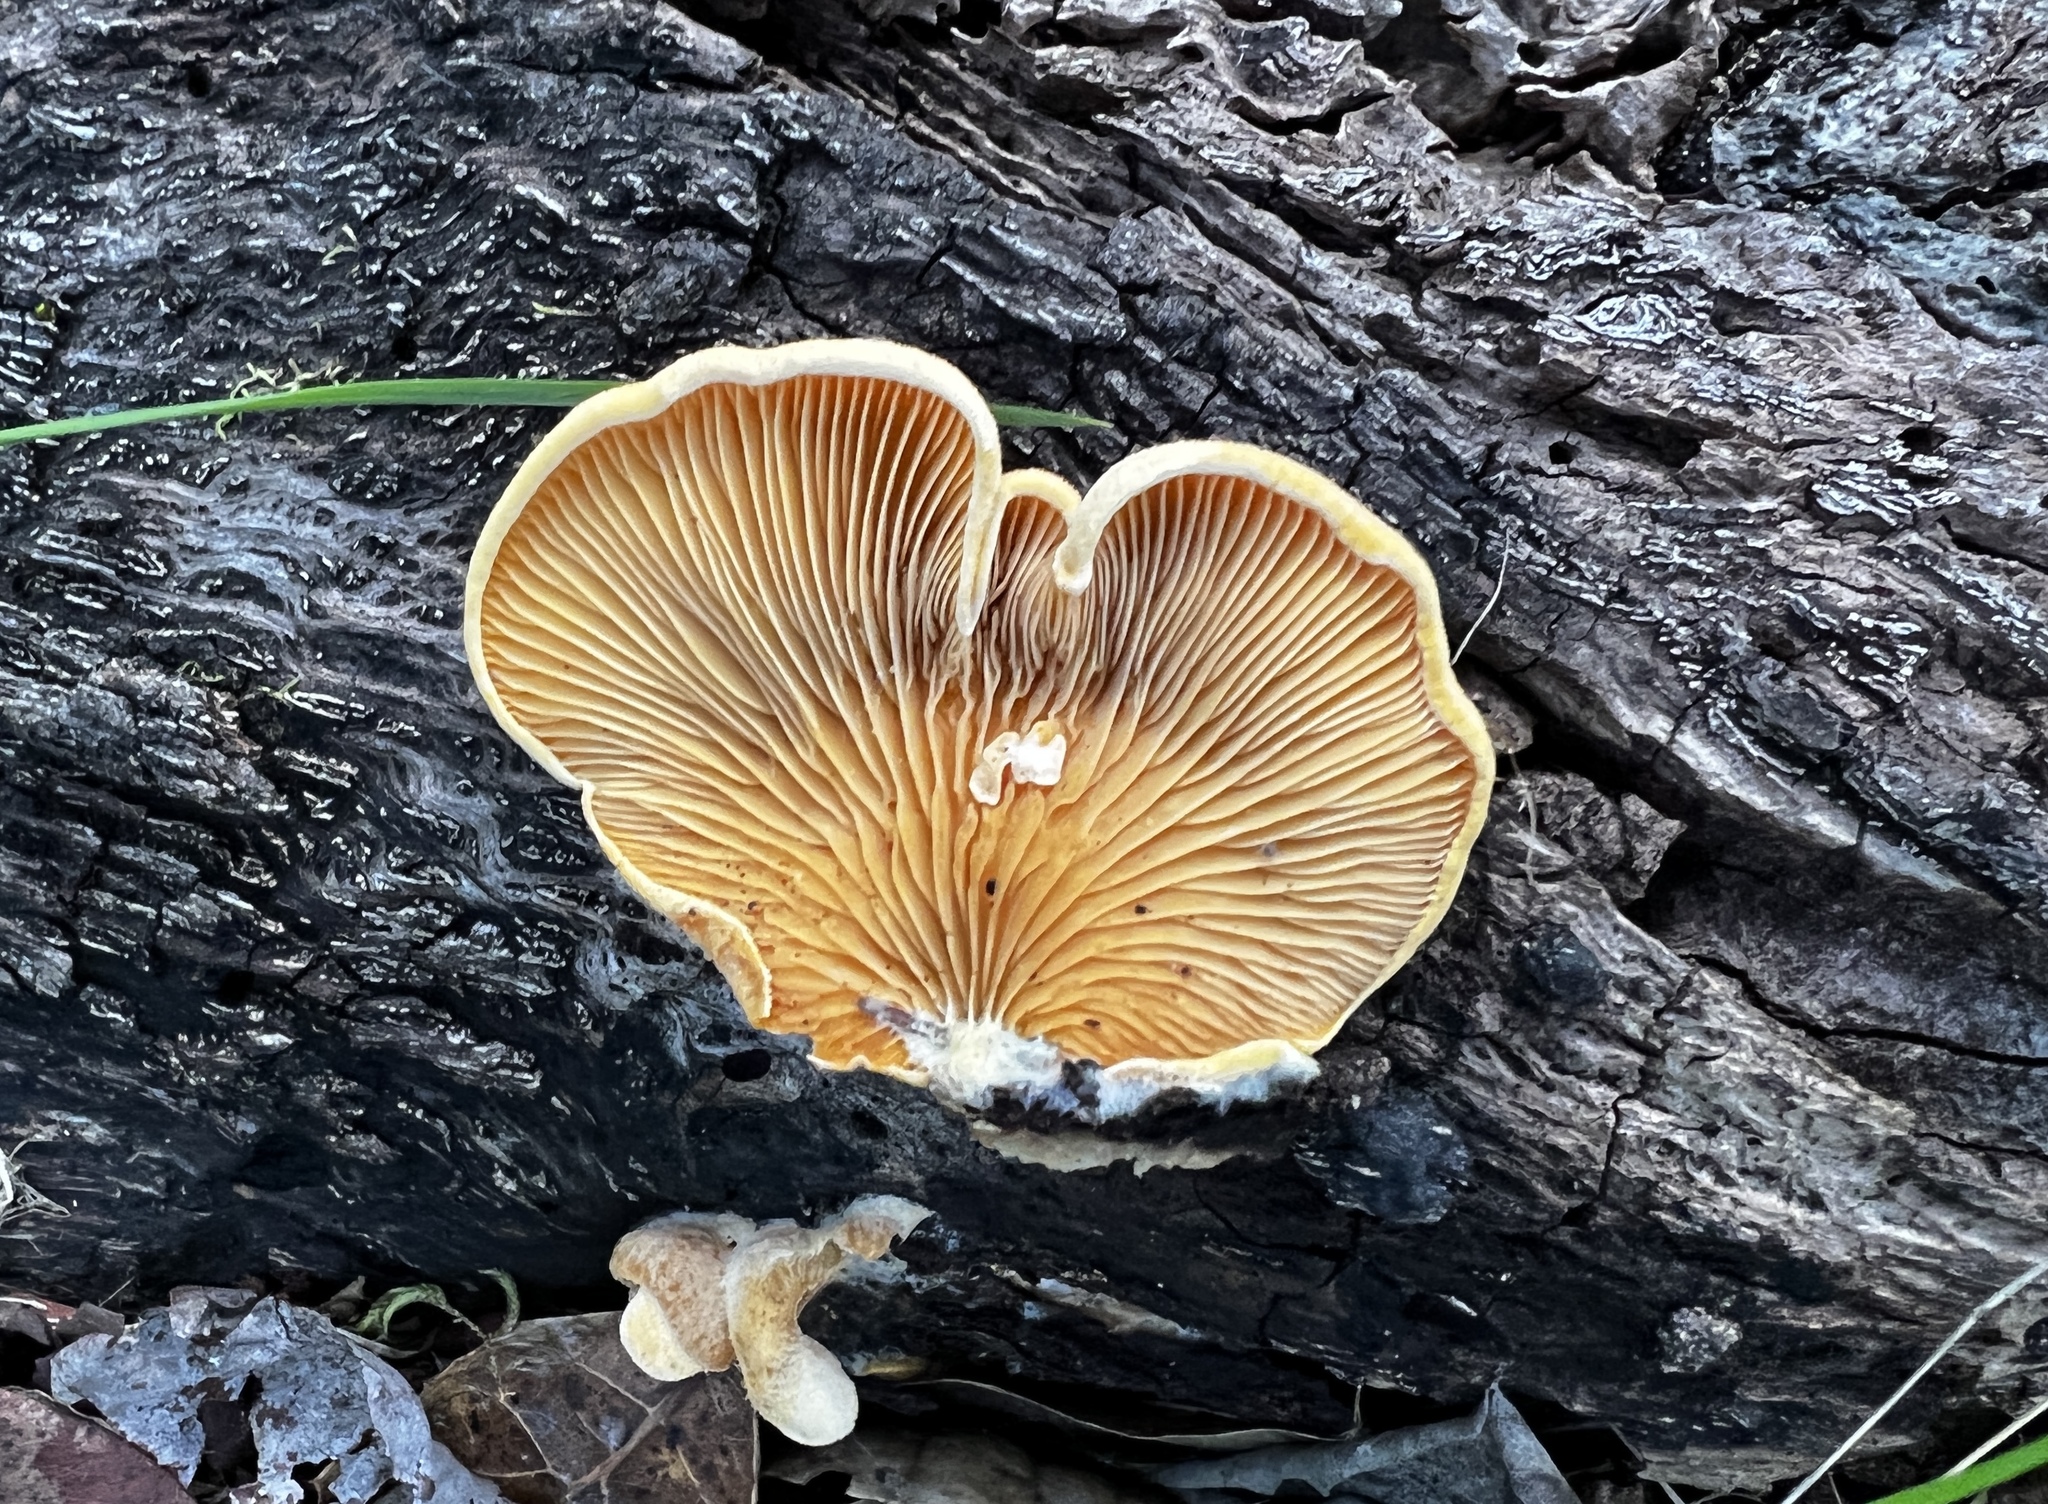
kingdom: Fungi
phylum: Basidiomycota
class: Agaricomycetes
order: Agaricales
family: Phyllotopsidaceae
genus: Phyllotopsis
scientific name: Phyllotopsis nidulans
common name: Orange mock oyster
